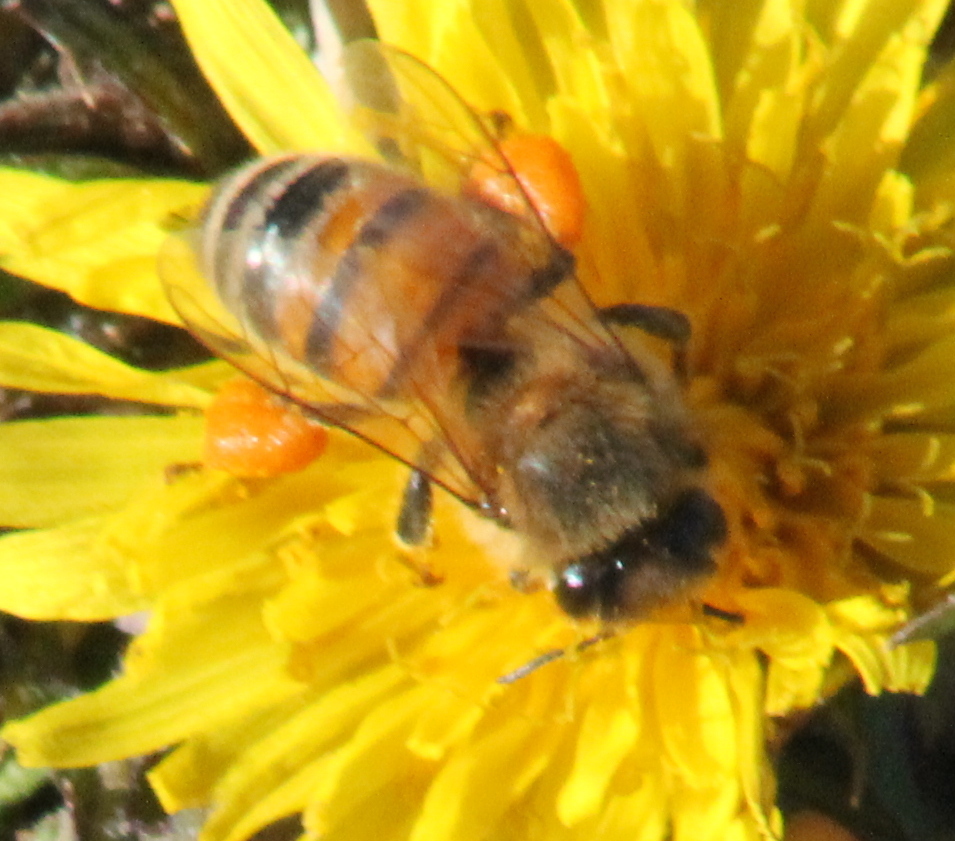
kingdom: Animalia
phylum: Arthropoda
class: Insecta
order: Hymenoptera
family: Apidae
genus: Apis
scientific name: Apis mellifera
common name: Honey bee
